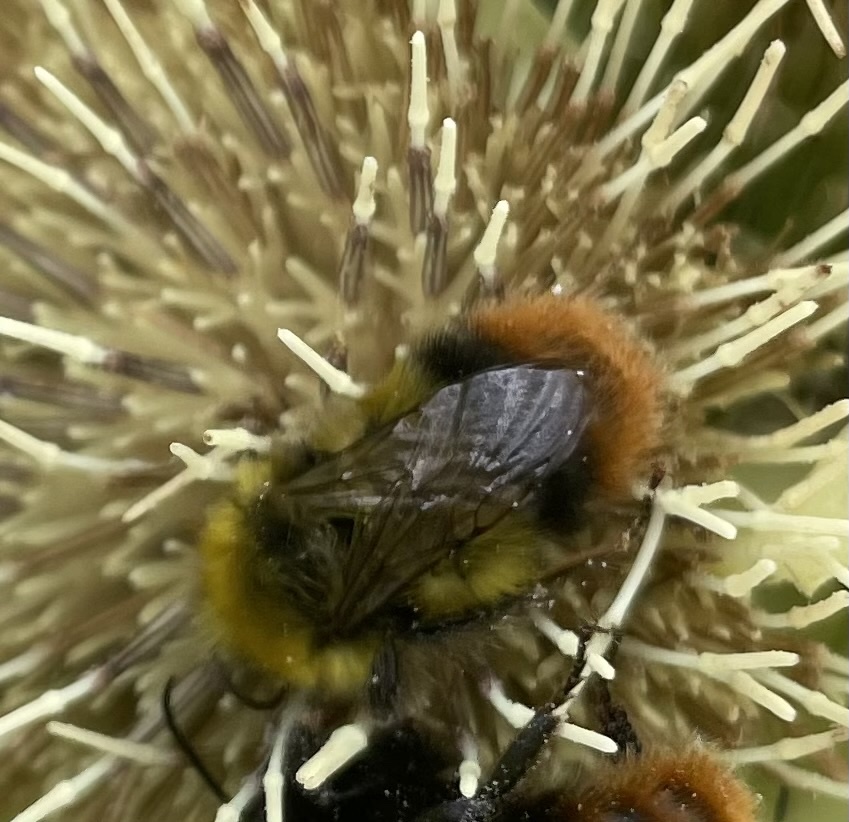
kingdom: Animalia
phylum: Arthropoda
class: Insecta
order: Hymenoptera
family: Apidae
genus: Bombus
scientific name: Bombus pratorum
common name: Early humble-bee
